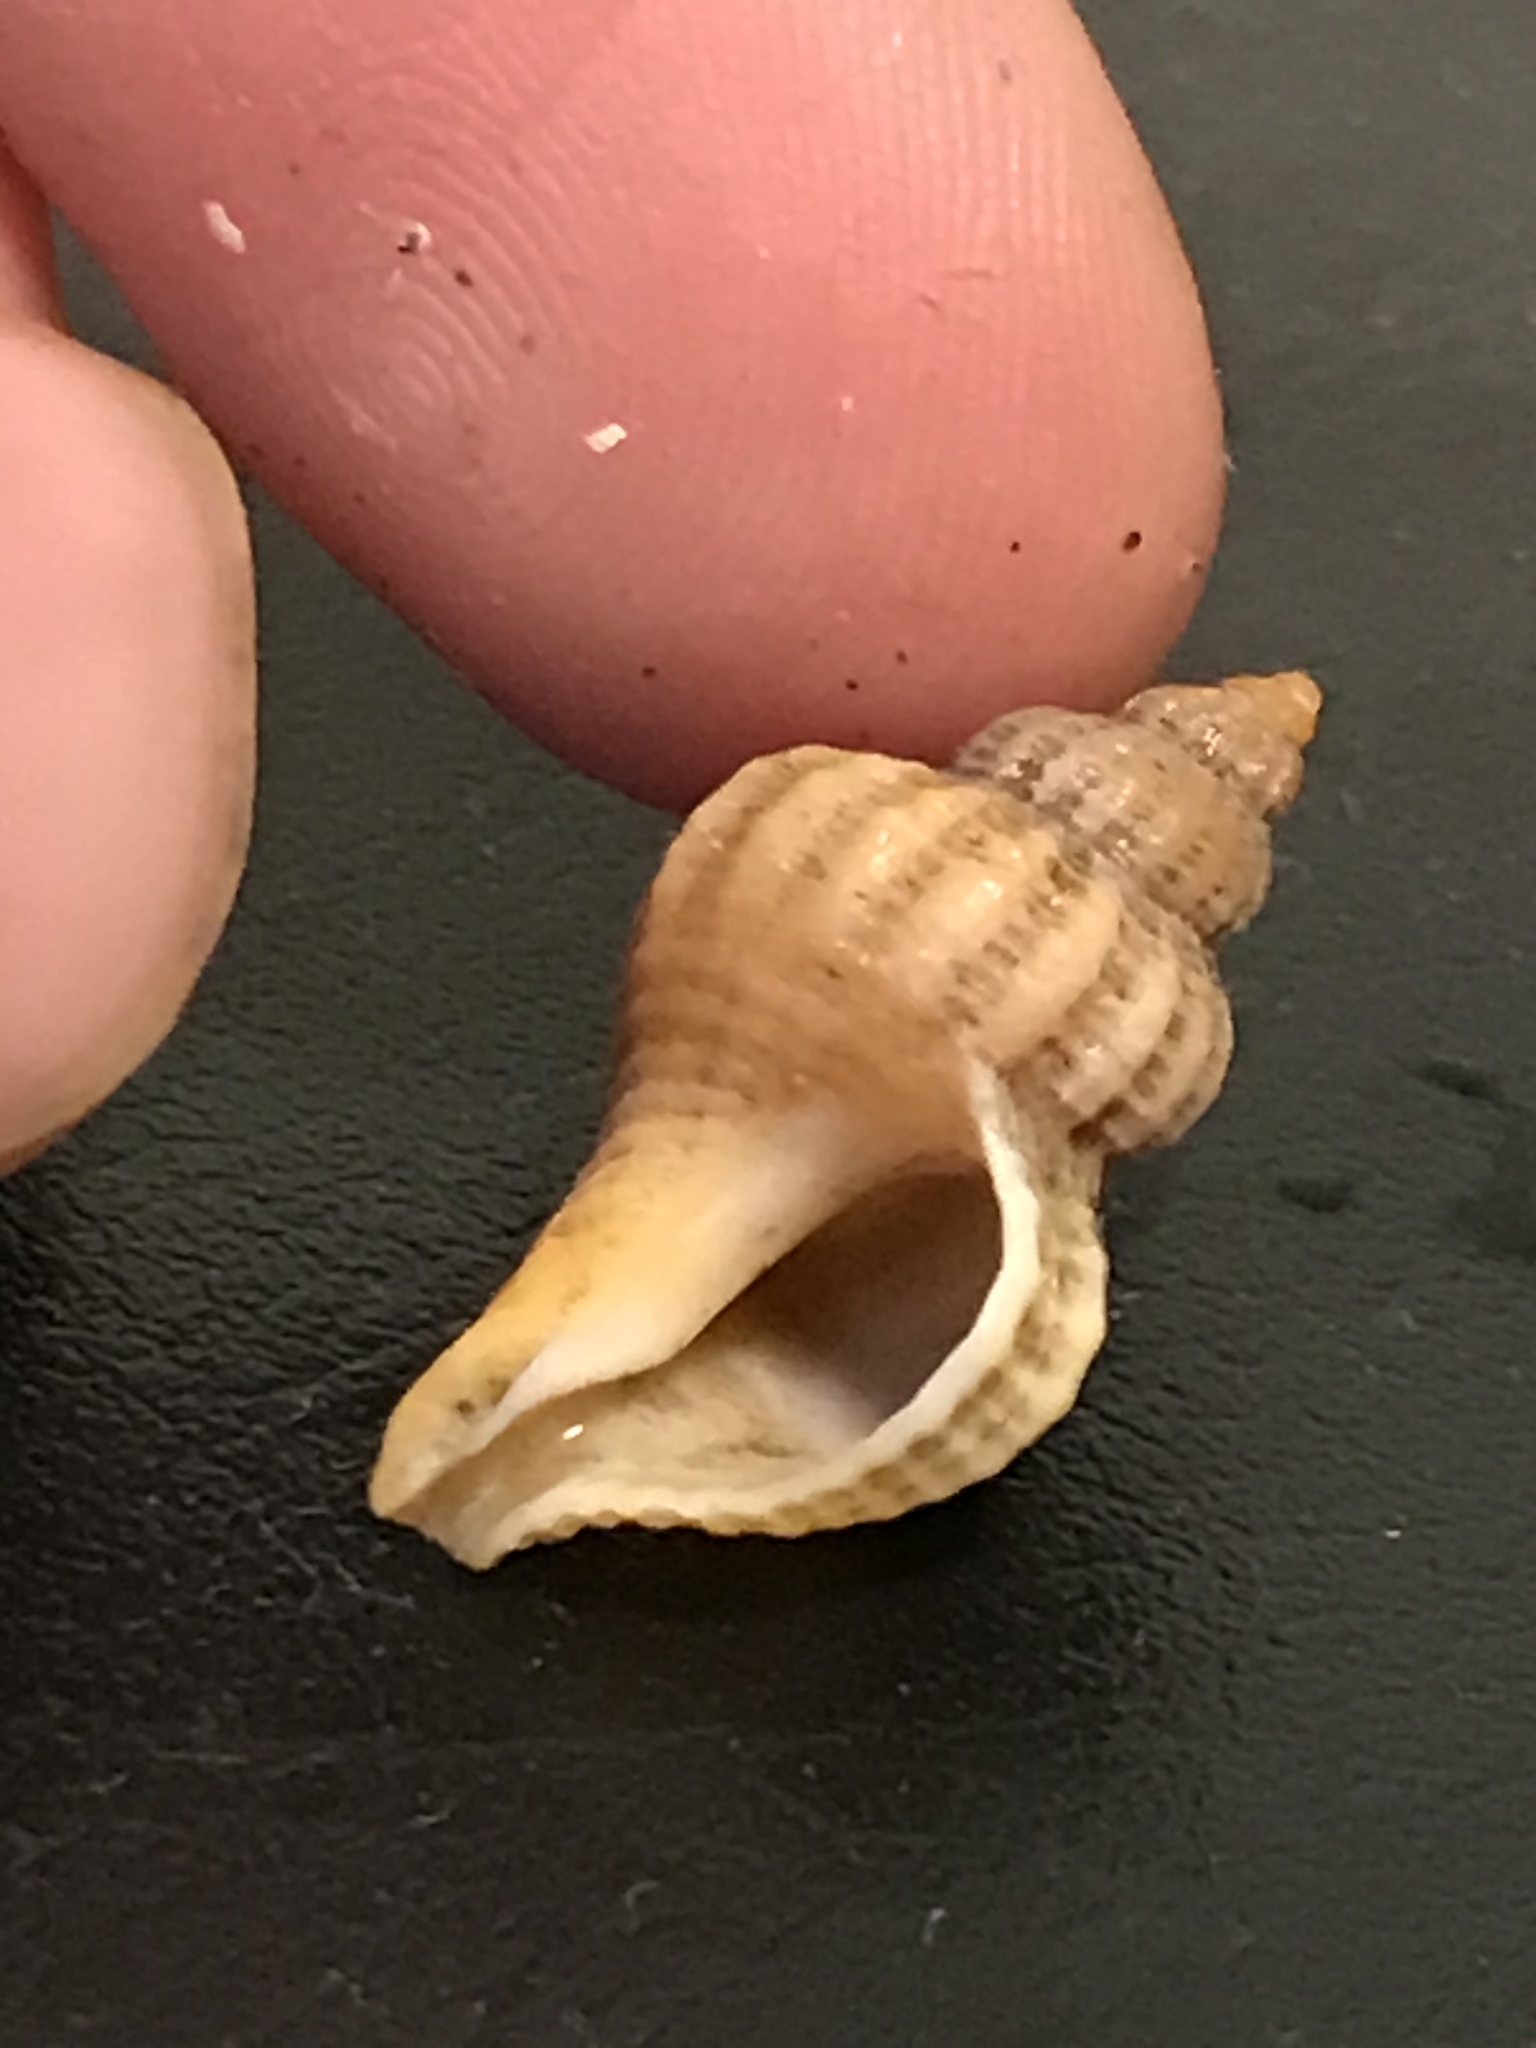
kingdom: Animalia
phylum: Mollusca
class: Gastropoda
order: Neogastropoda
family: Muricidae
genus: Urosalpinx
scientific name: Urosalpinx cinerea
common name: American sting winkle
